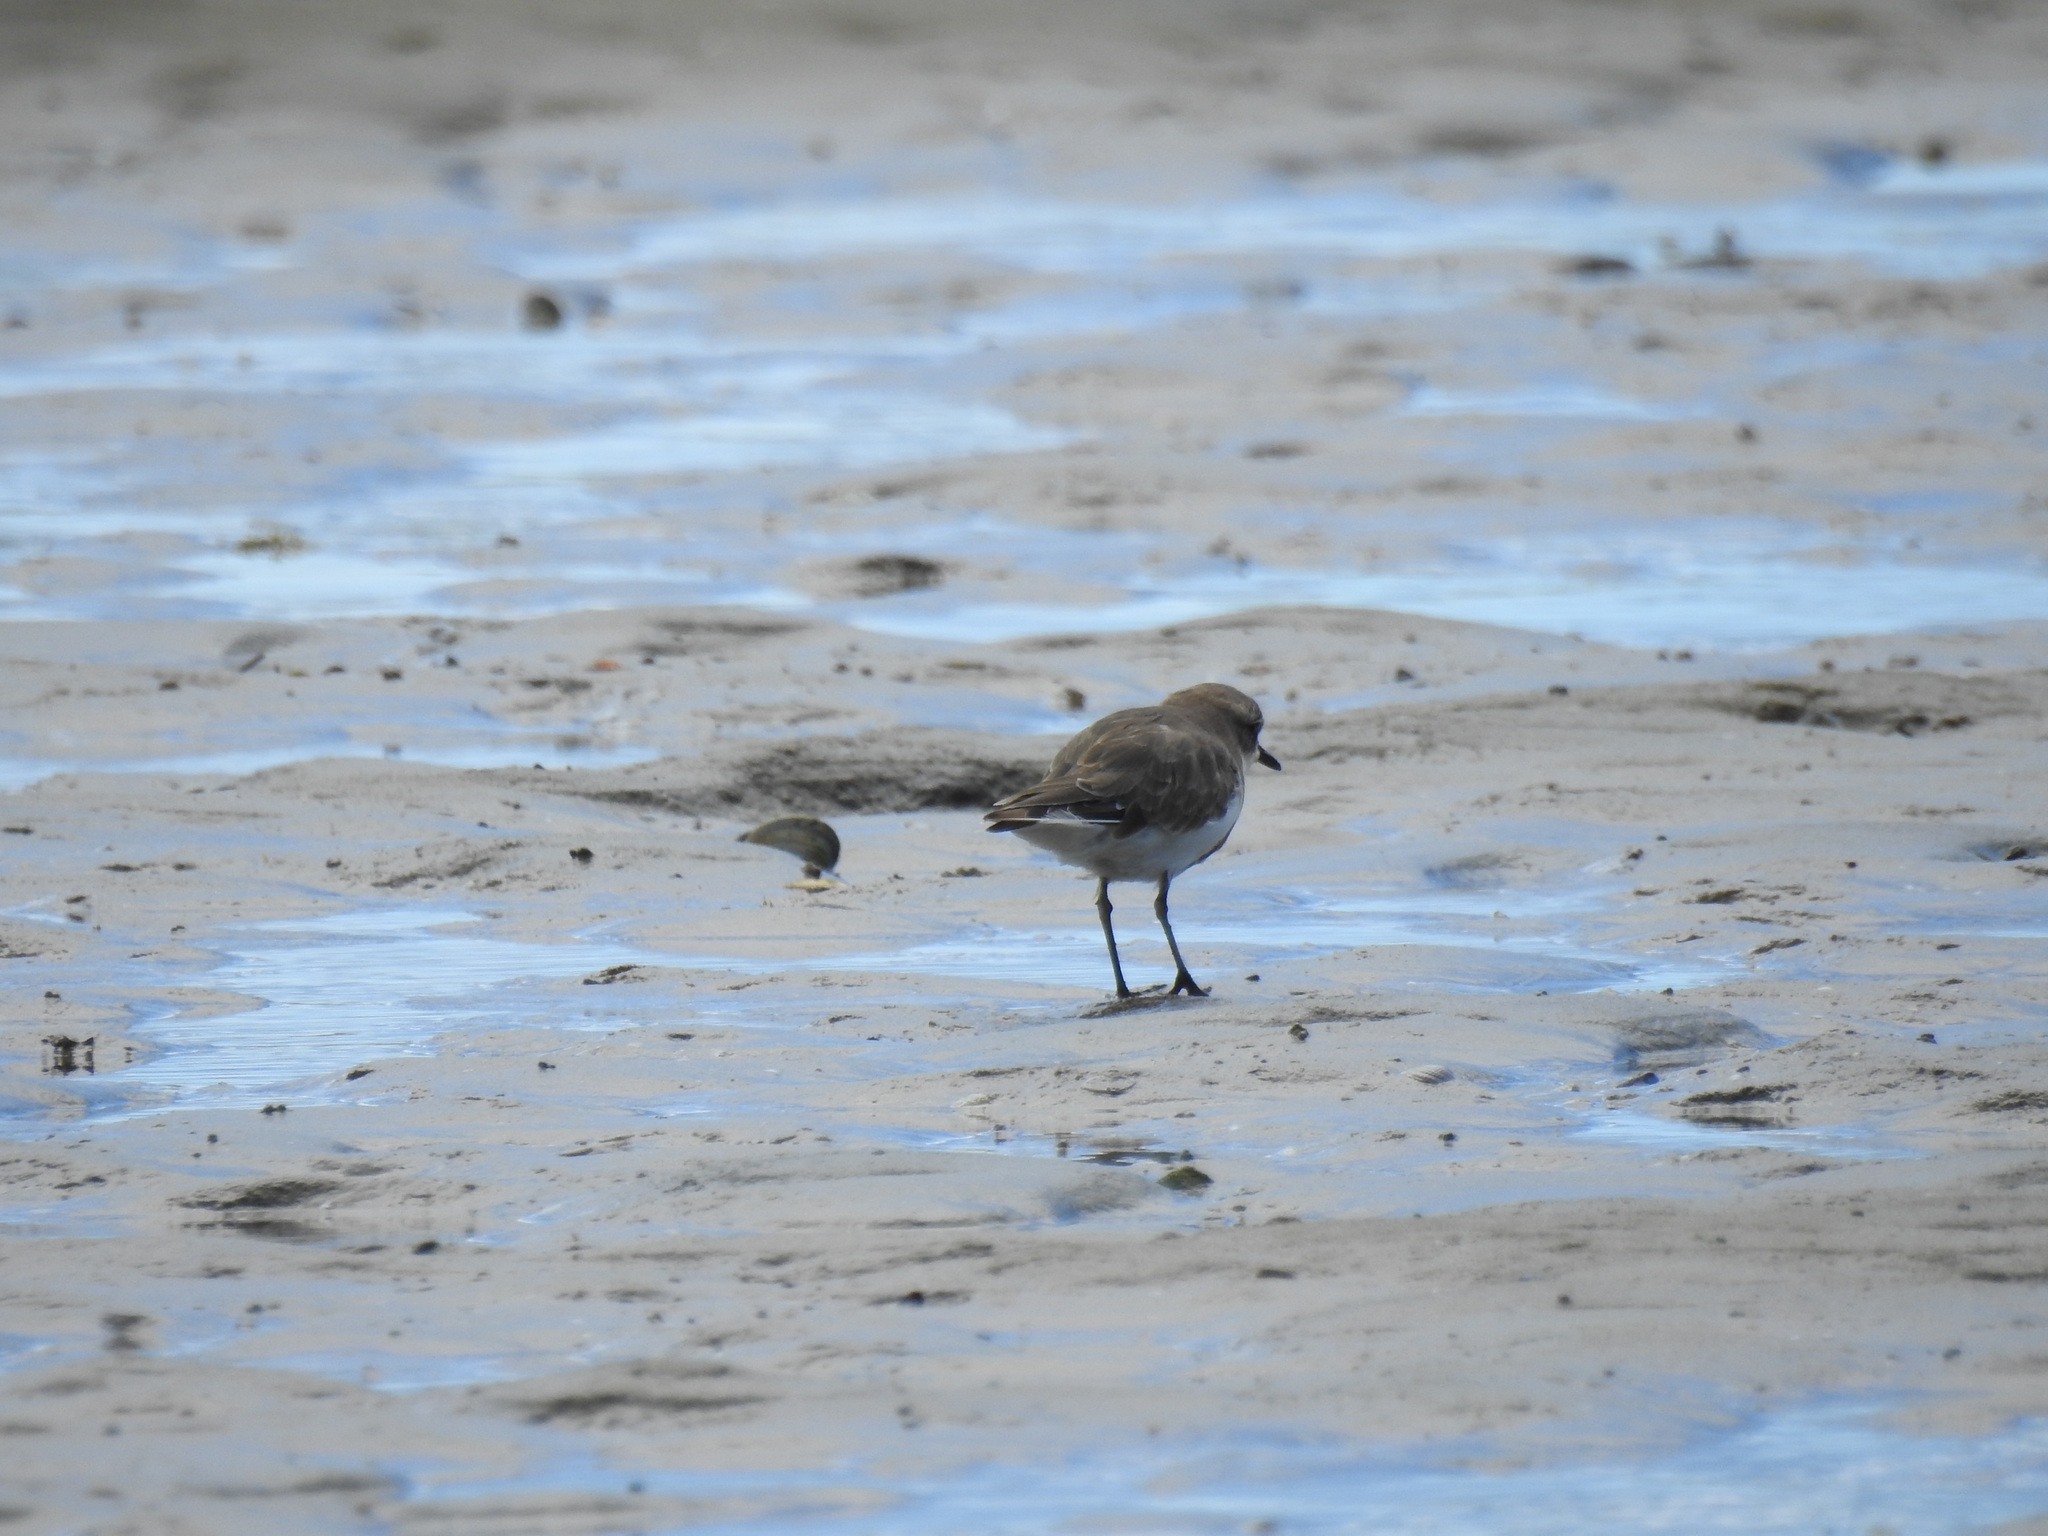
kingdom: Animalia
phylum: Chordata
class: Aves
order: Charadriiformes
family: Charadriidae
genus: Anarhynchus
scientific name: Anarhynchus
